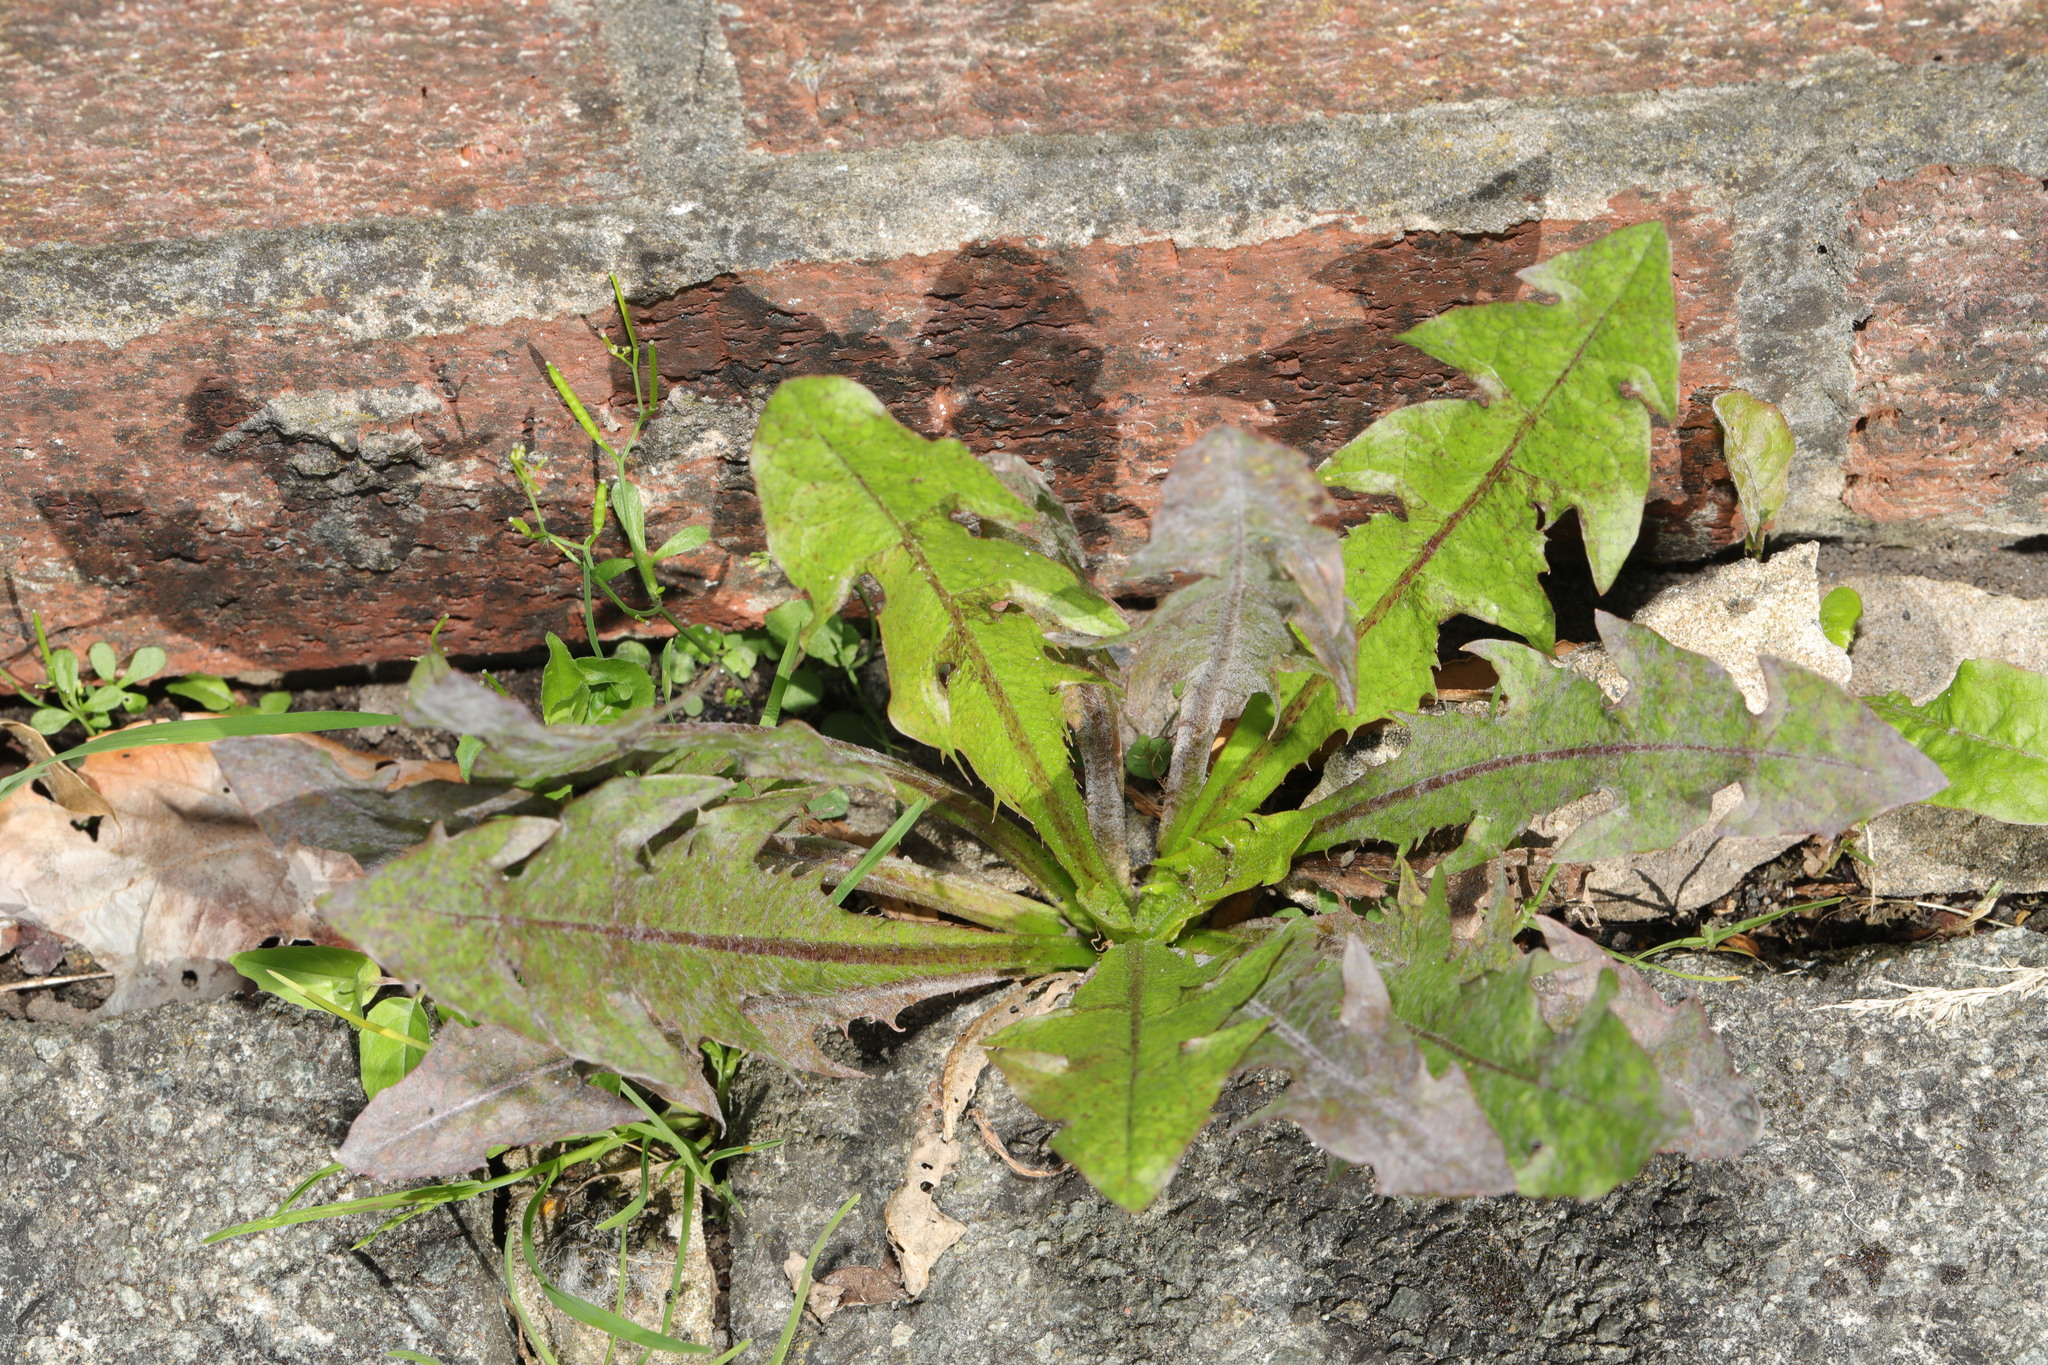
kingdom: Plantae
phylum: Tracheophyta
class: Magnoliopsida
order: Asterales
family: Asteraceae
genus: Taraxacum
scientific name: Taraxacum officinale
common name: Common dandelion
